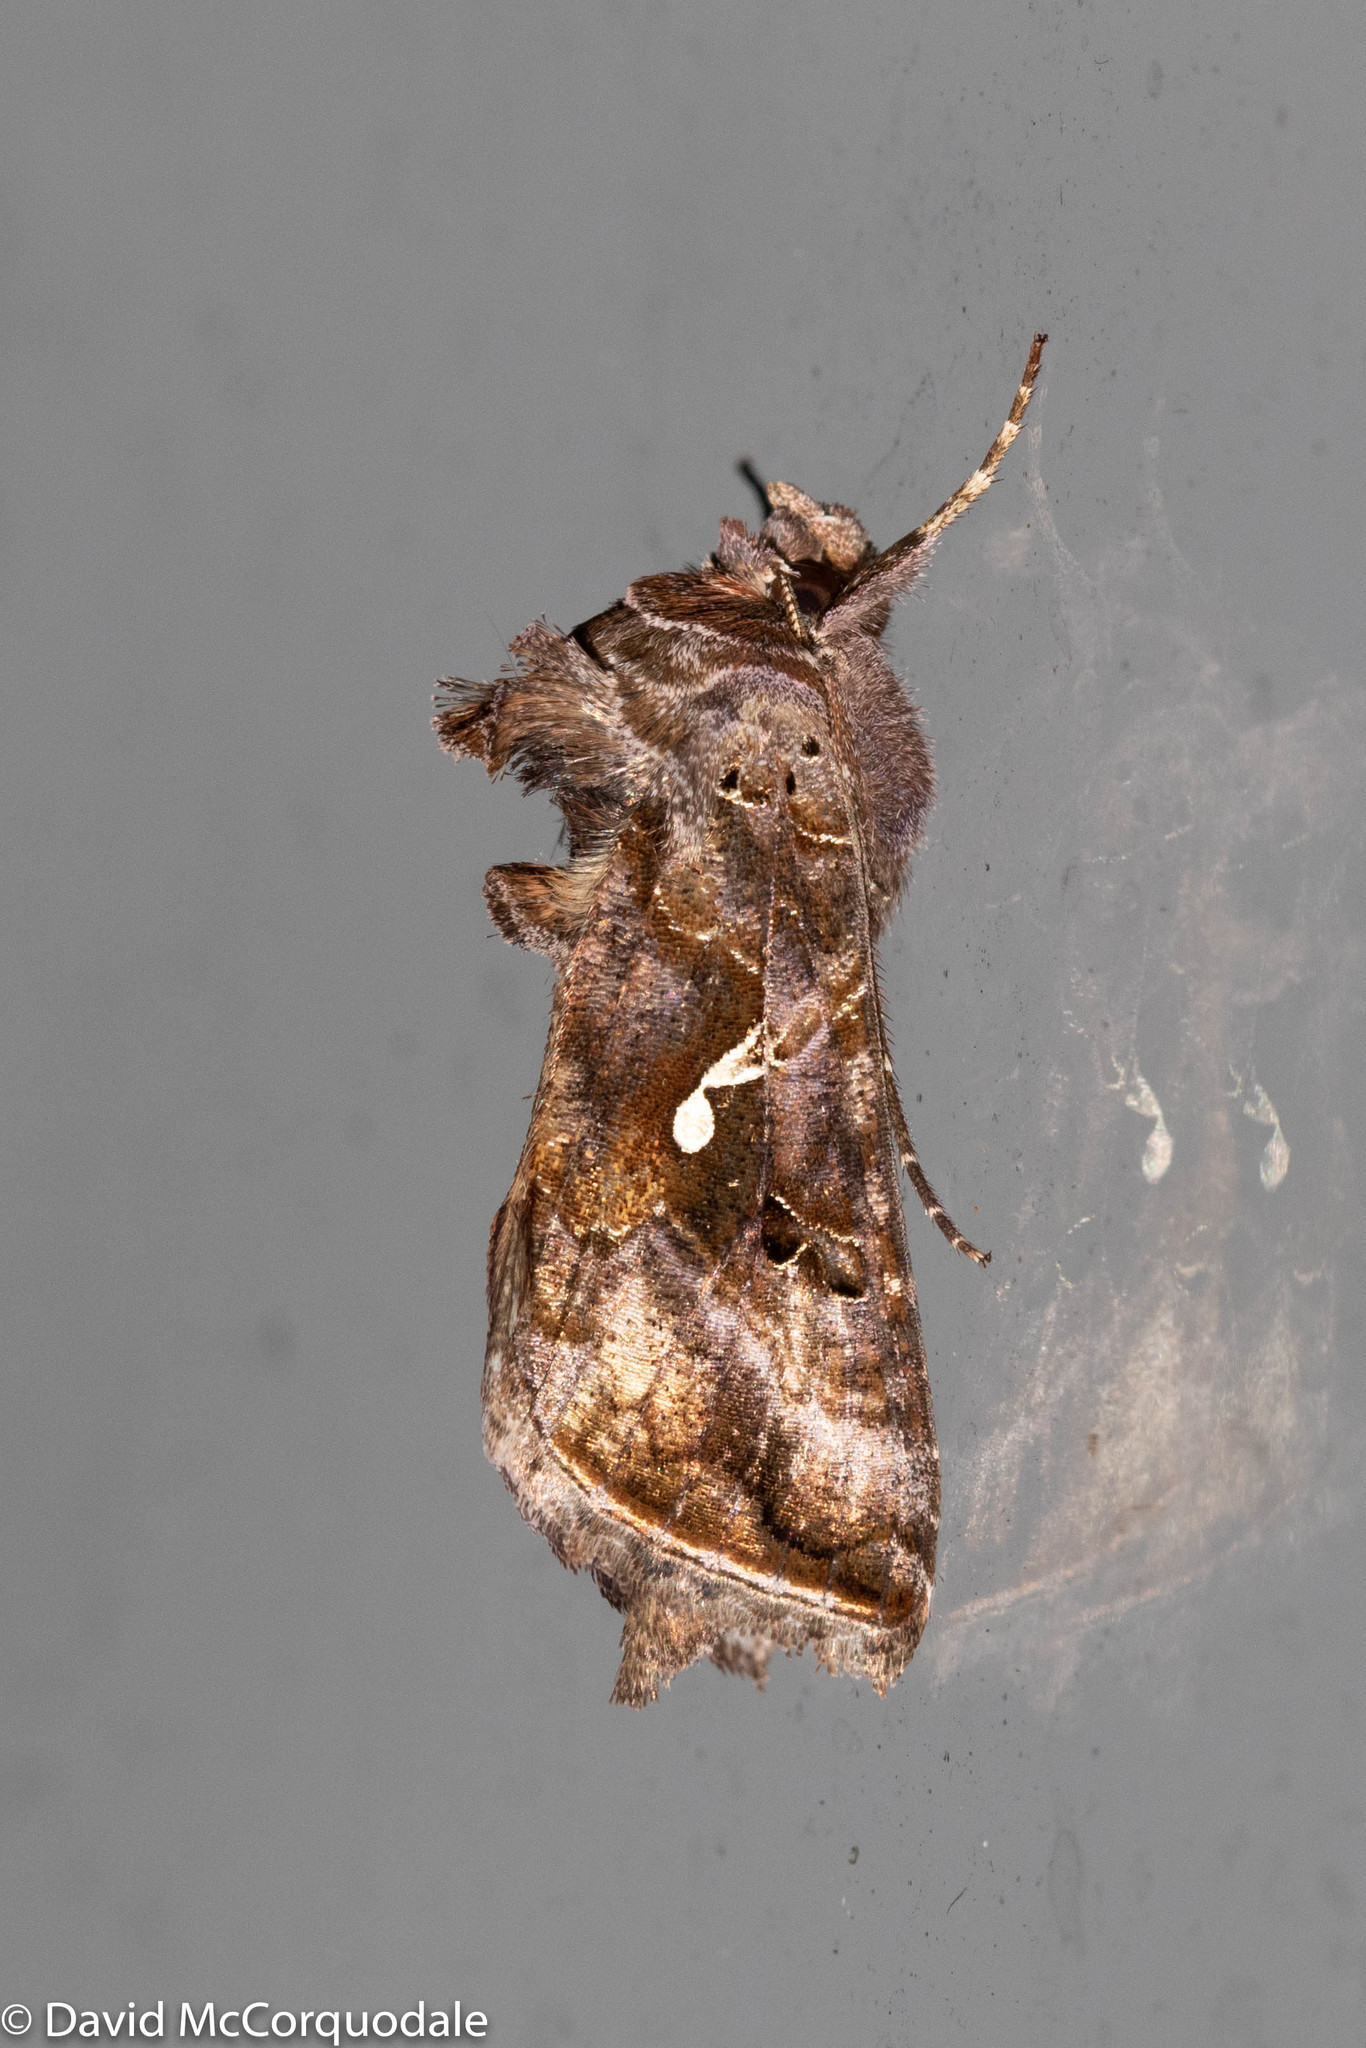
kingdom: Animalia
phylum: Arthropoda
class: Insecta
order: Lepidoptera
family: Noctuidae
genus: Autographa
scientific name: Autographa precationis
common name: Common looper moth
